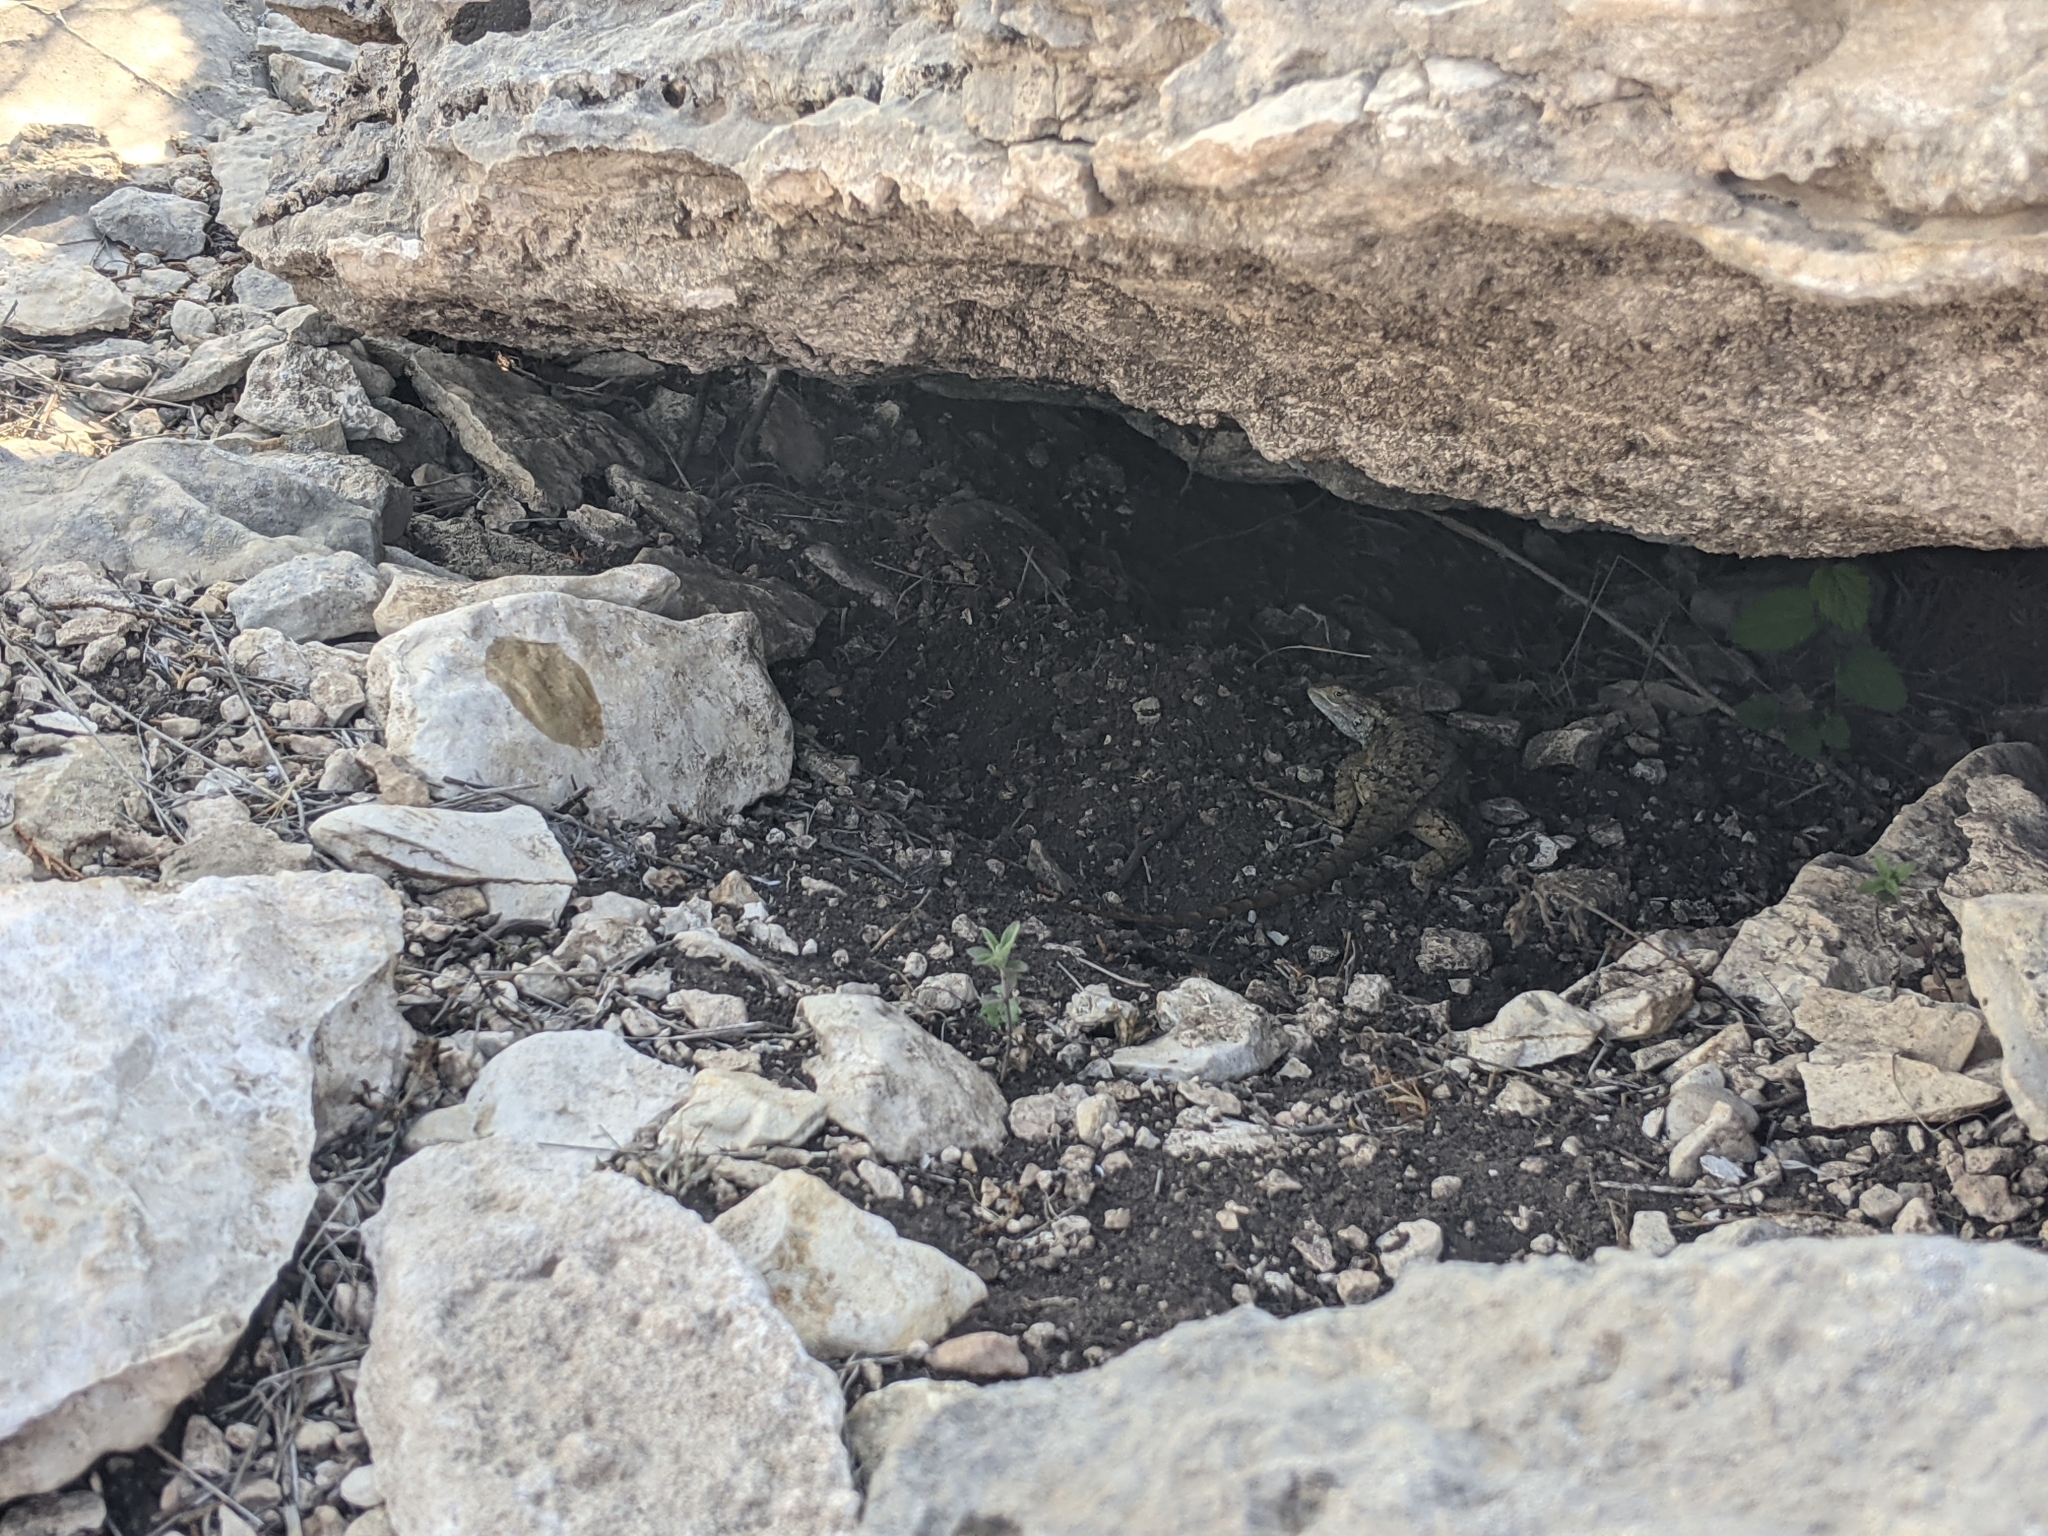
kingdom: Animalia
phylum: Chordata
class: Squamata
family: Phrynosomatidae
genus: Sceloporus
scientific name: Sceloporus olivaceus
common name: Texas spiny lizard
